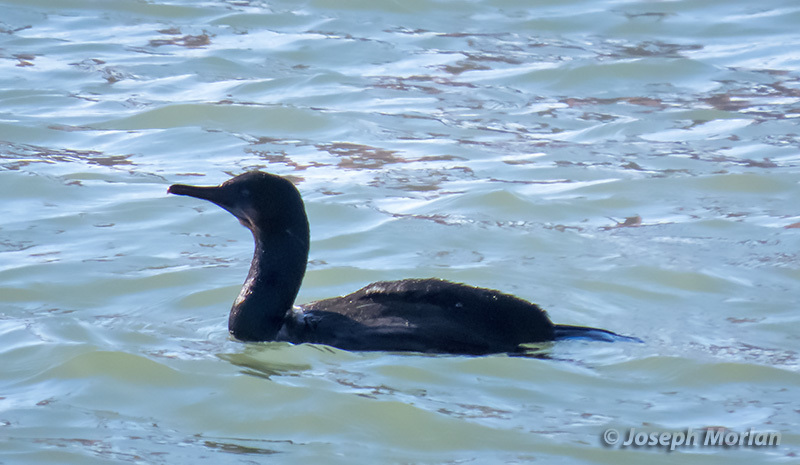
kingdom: Animalia
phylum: Chordata
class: Aves
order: Suliformes
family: Phalacrocoracidae
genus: Urile
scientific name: Urile penicillatus
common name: Brandt's cormorant
